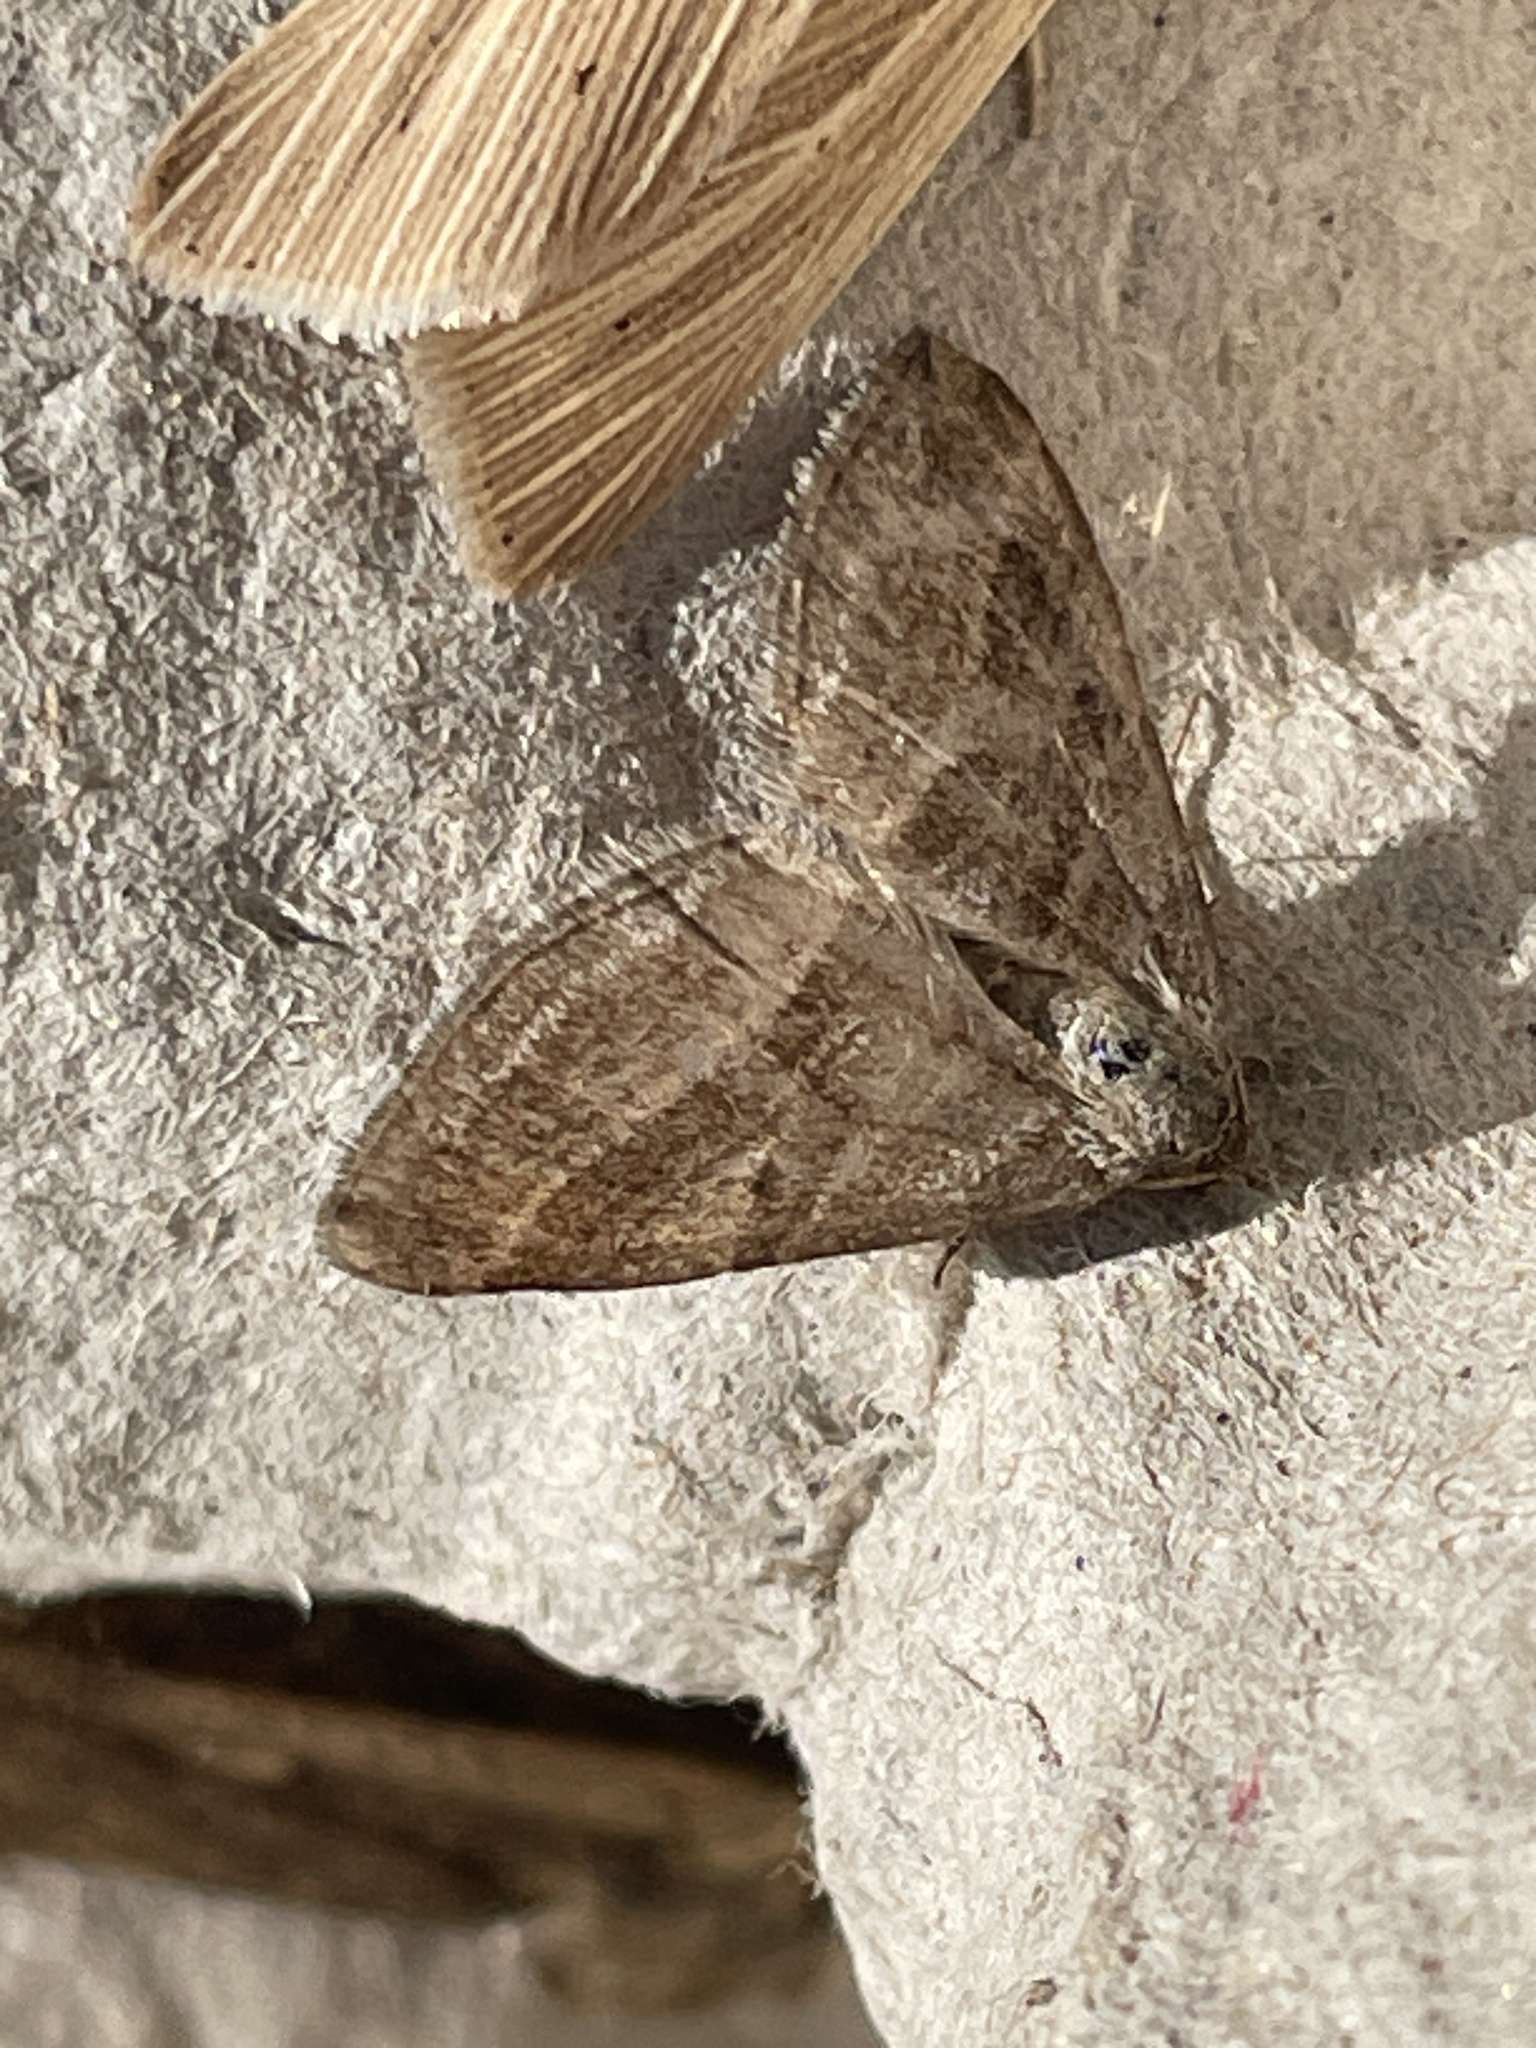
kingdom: Animalia
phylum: Arthropoda
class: Insecta
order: Lepidoptera
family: Geometridae
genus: Phibalapteryx
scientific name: Phibalapteryx virgata
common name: Oblique striped
